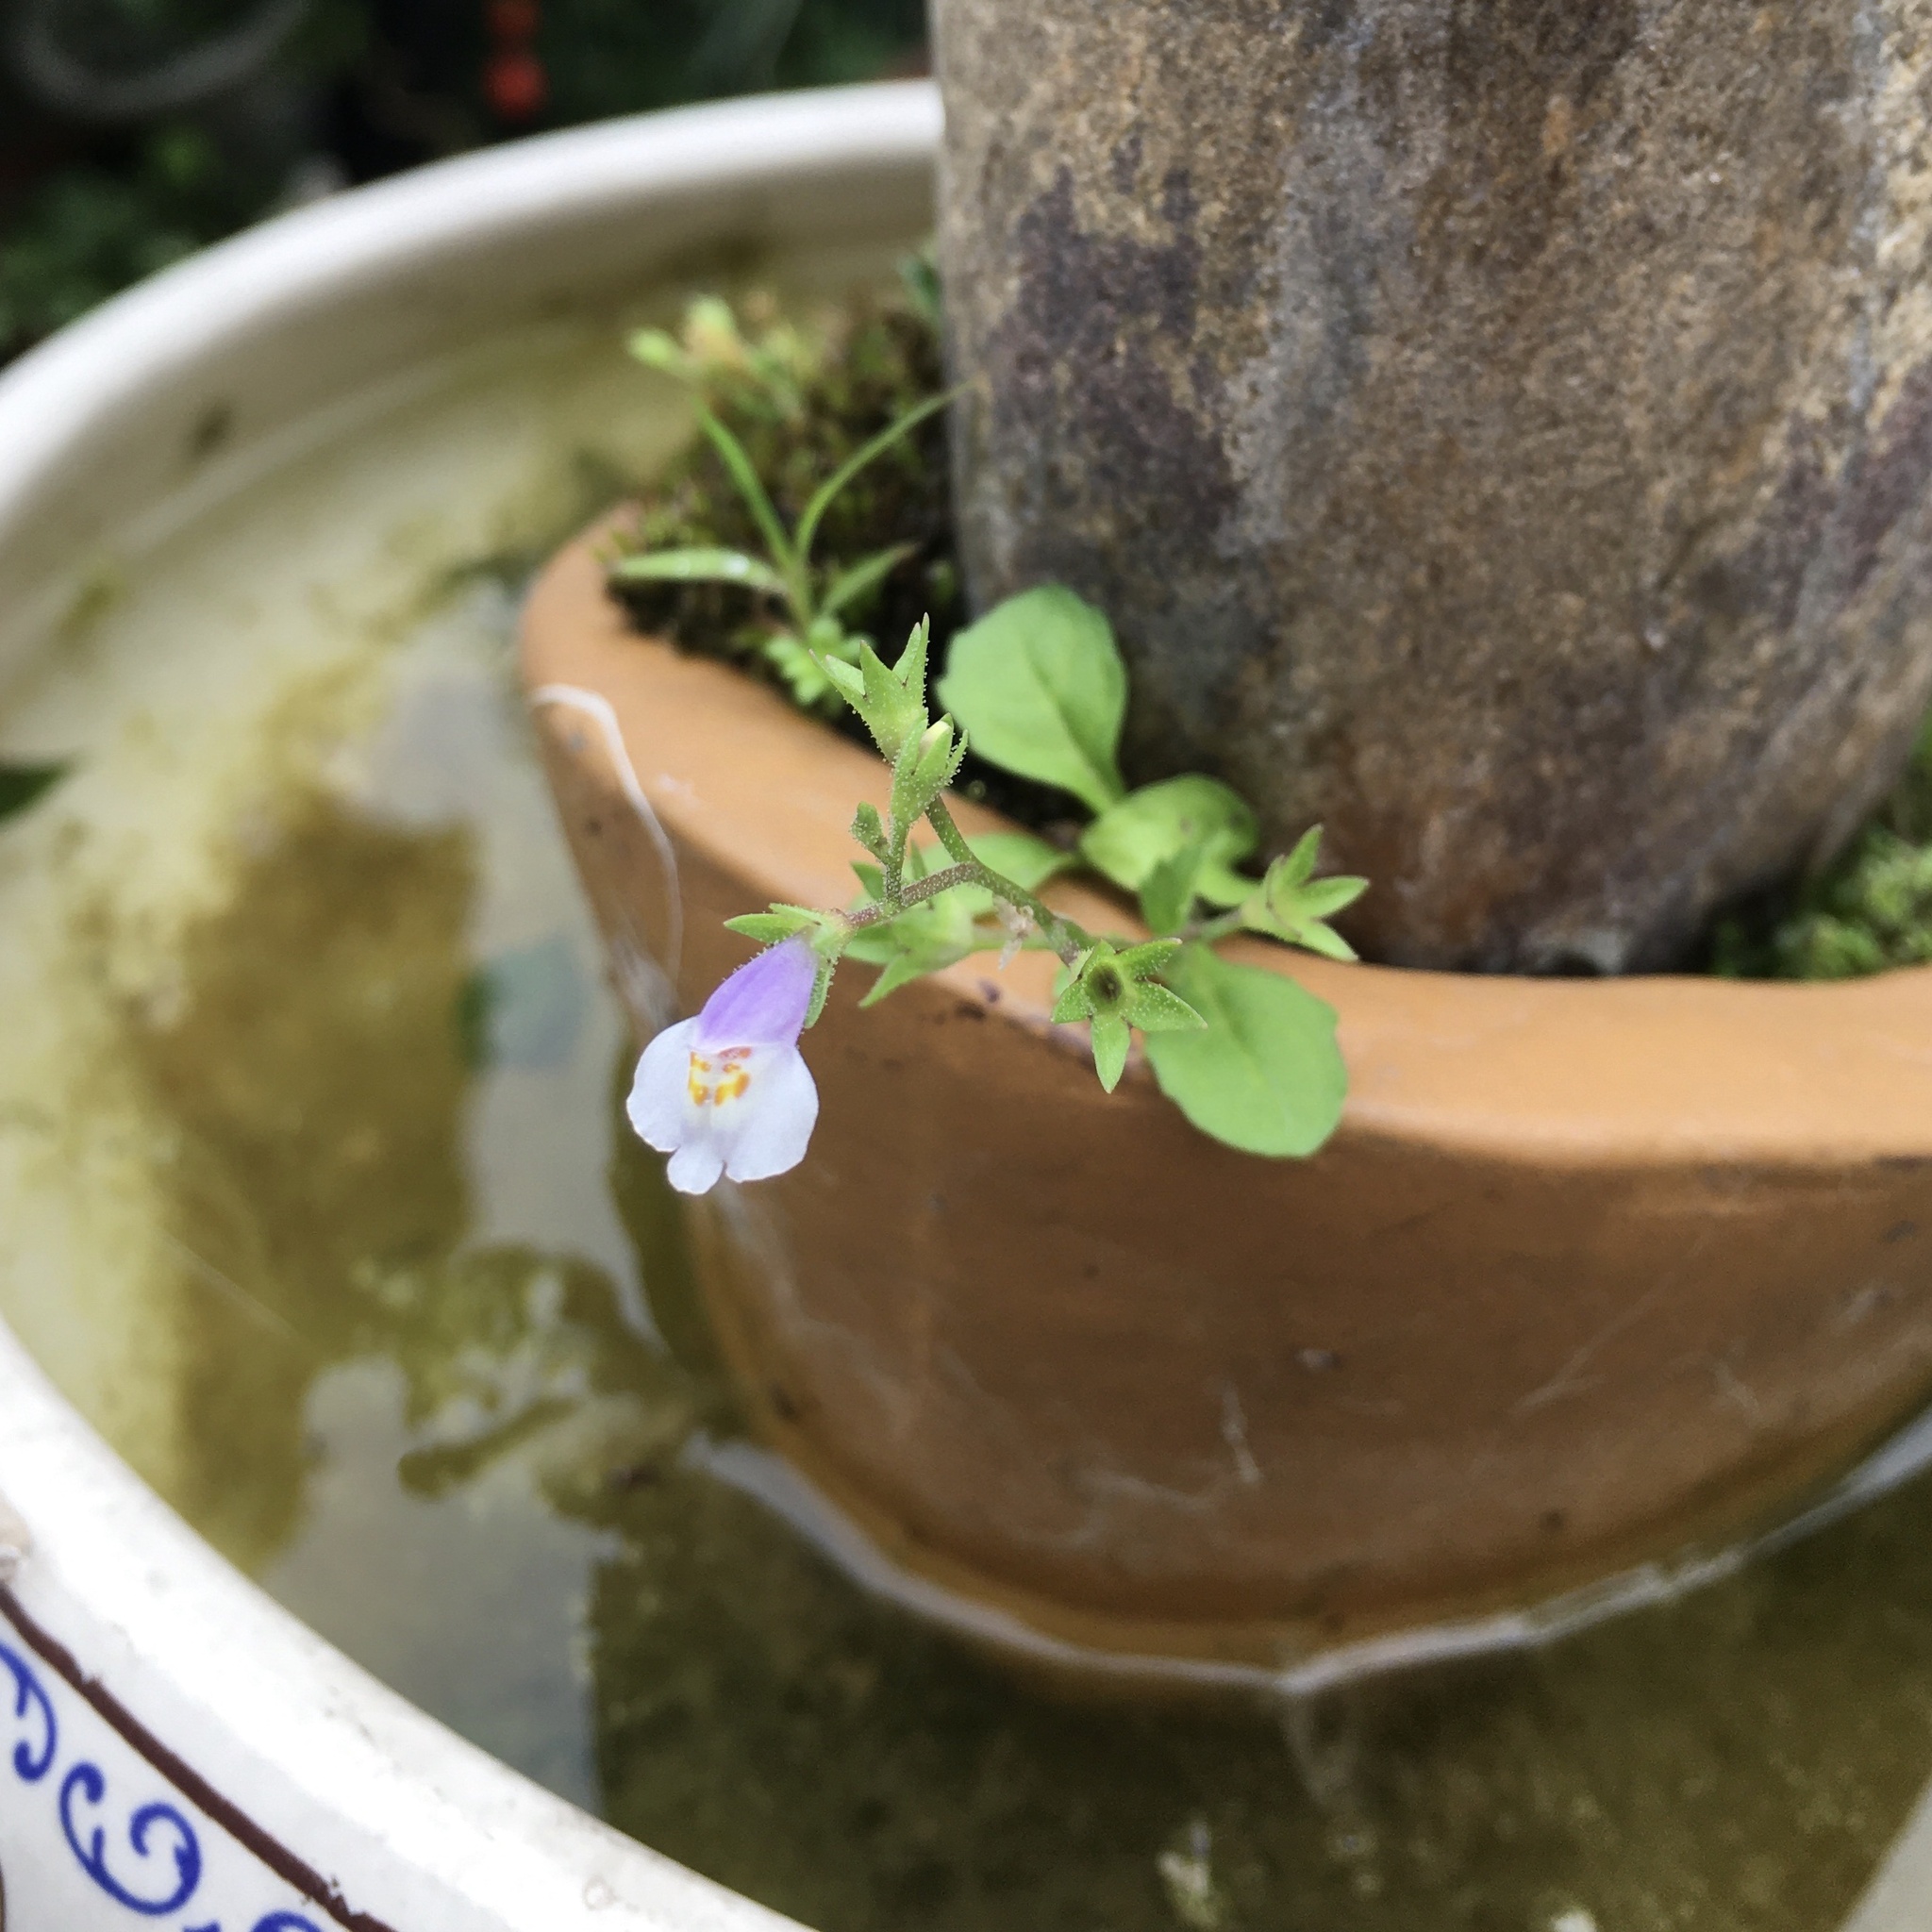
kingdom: Plantae
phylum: Tracheophyta
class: Magnoliopsida
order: Lamiales
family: Mazaceae
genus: Mazus
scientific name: Mazus pumilus
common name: Japanese mazus
